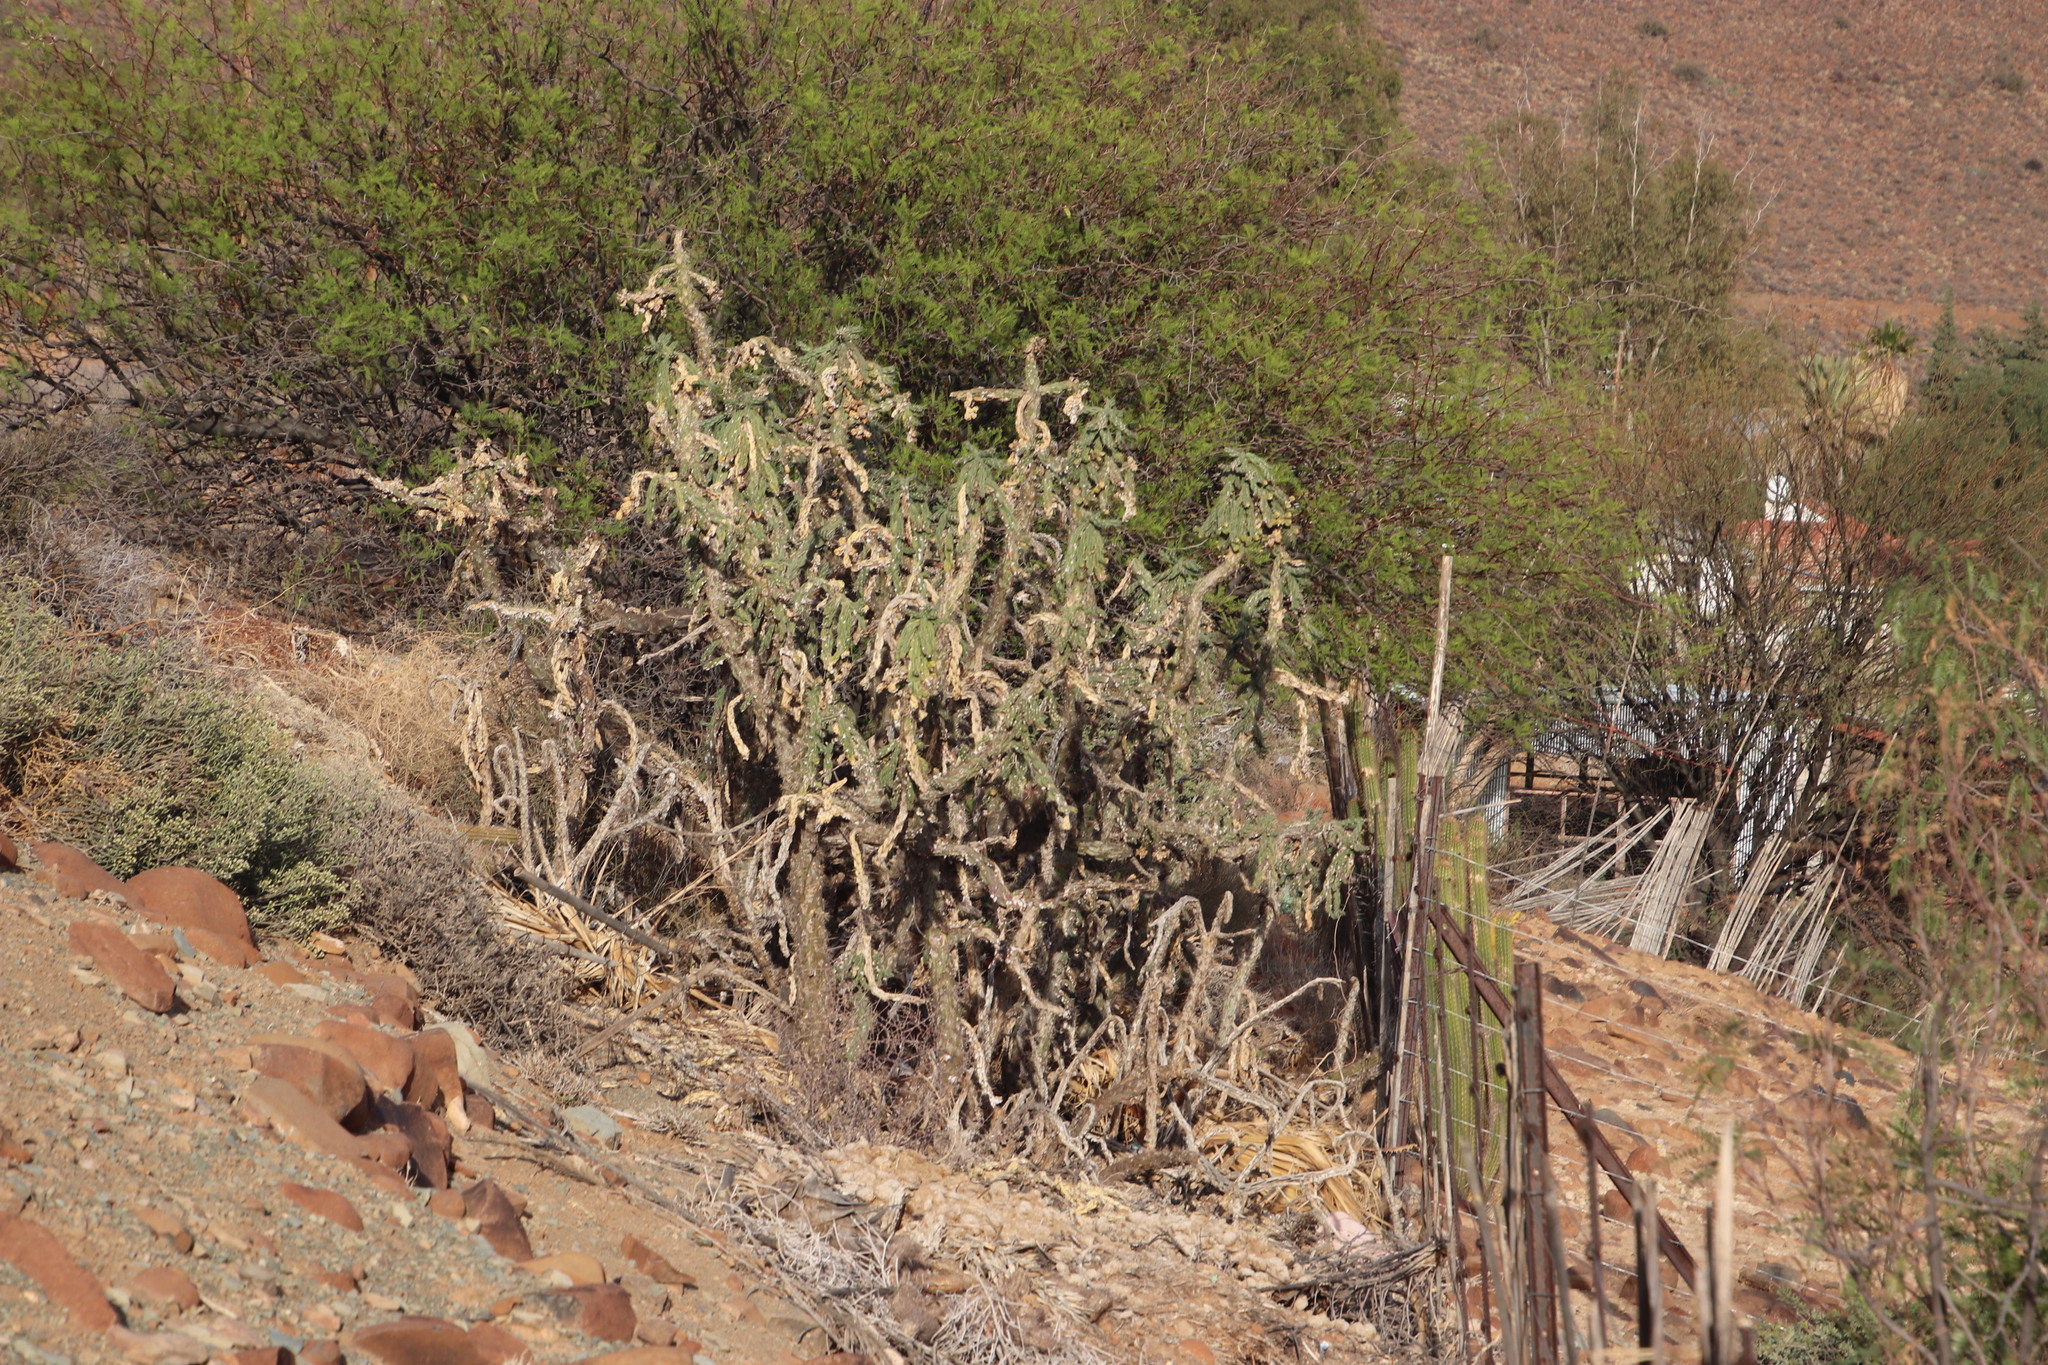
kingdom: Plantae
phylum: Tracheophyta
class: Magnoliopsida
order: Caryophyllales
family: Cactaceae
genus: Cylindropuntia
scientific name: Cylindropuntia imbricata
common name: Candelabrum cactus
